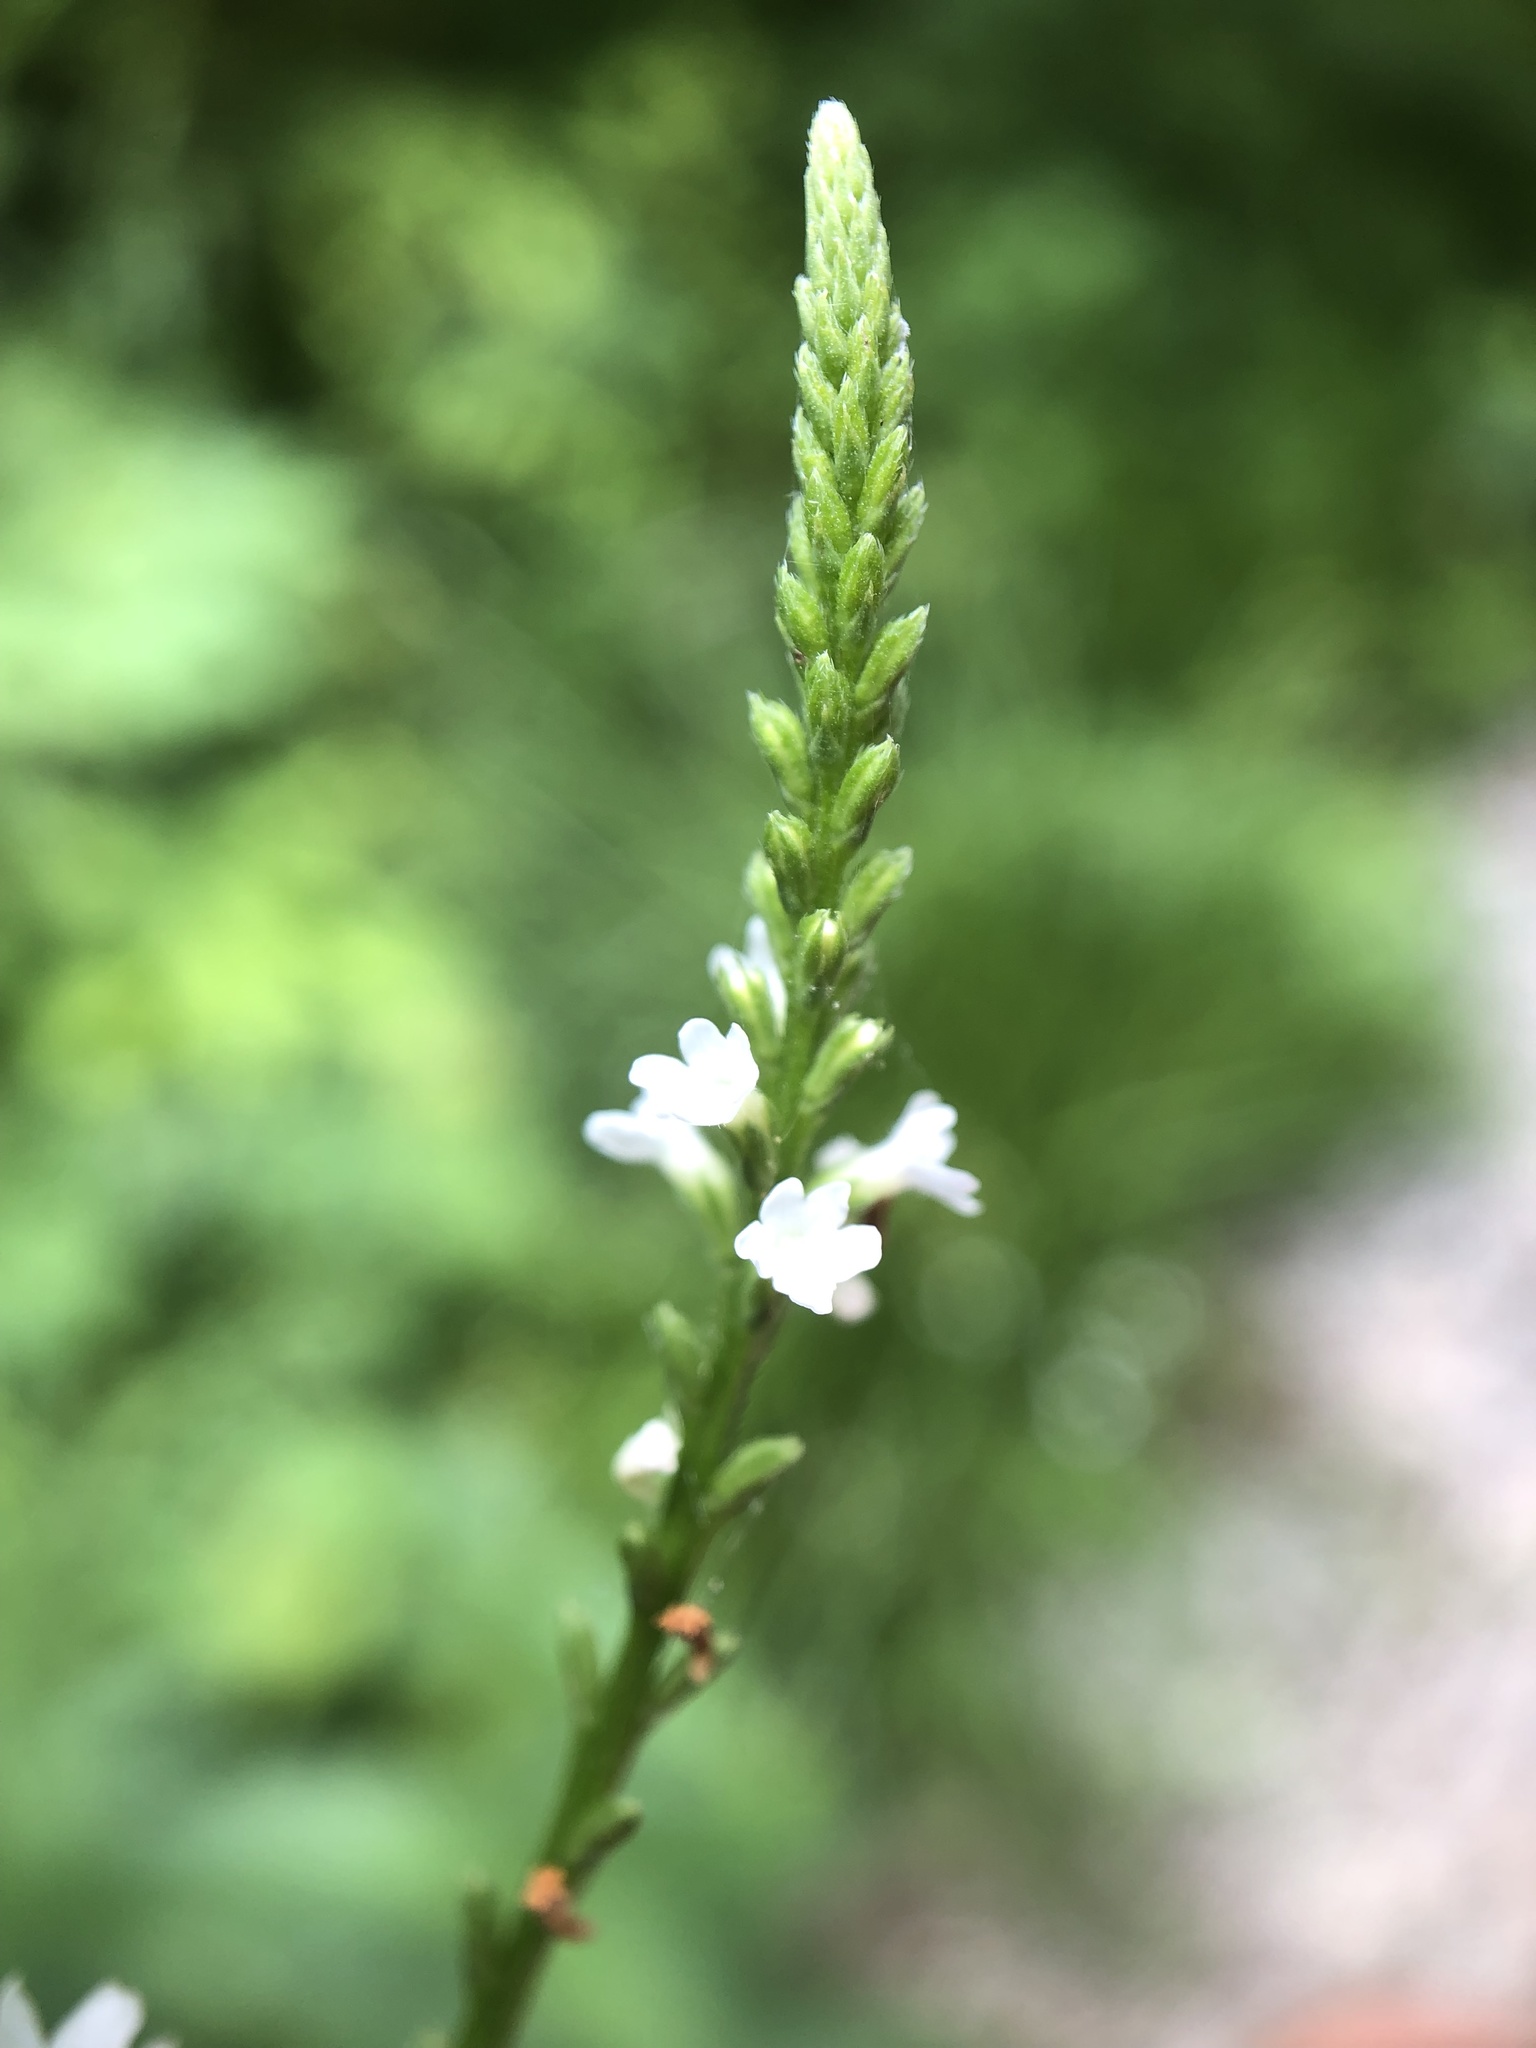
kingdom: Plantae
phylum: Tracheophyta
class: Magnoliopsida
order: Lamiales
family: Verbenaceae
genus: Verbena
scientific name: Verbena urticifolia
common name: Nettle-leaved vervain
